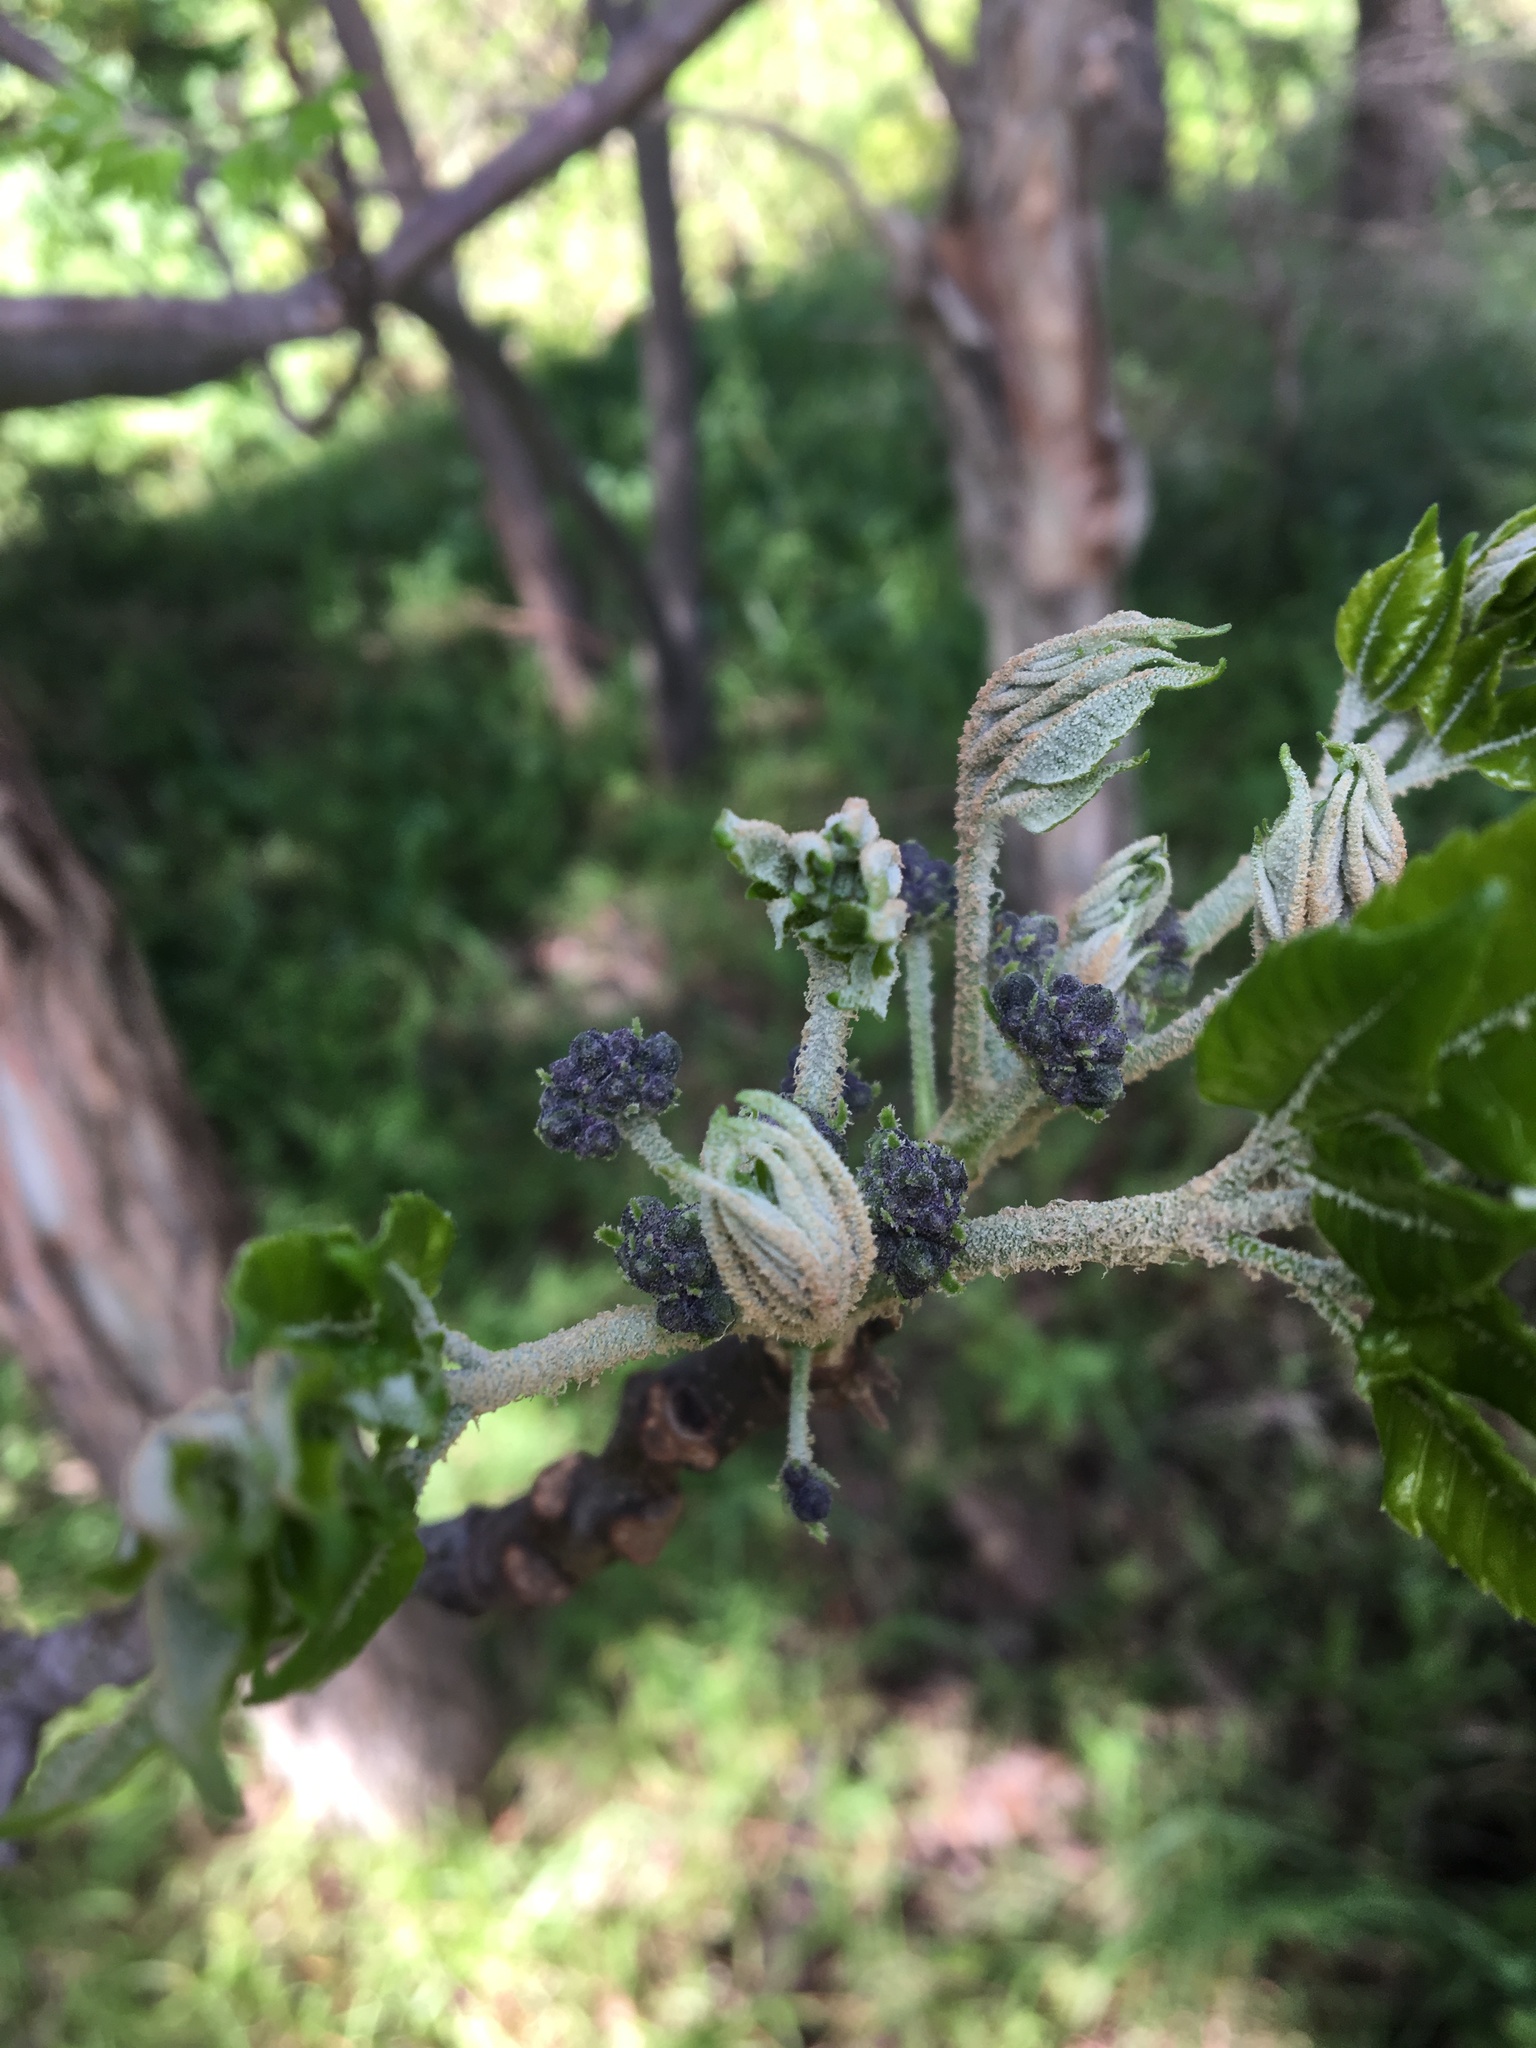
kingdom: Plantae
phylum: Tracheophyta
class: Magnoliopsida
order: Sapindales
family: Meliaceae
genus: Melia
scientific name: Melia azedarach
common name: Chinaberrytree
